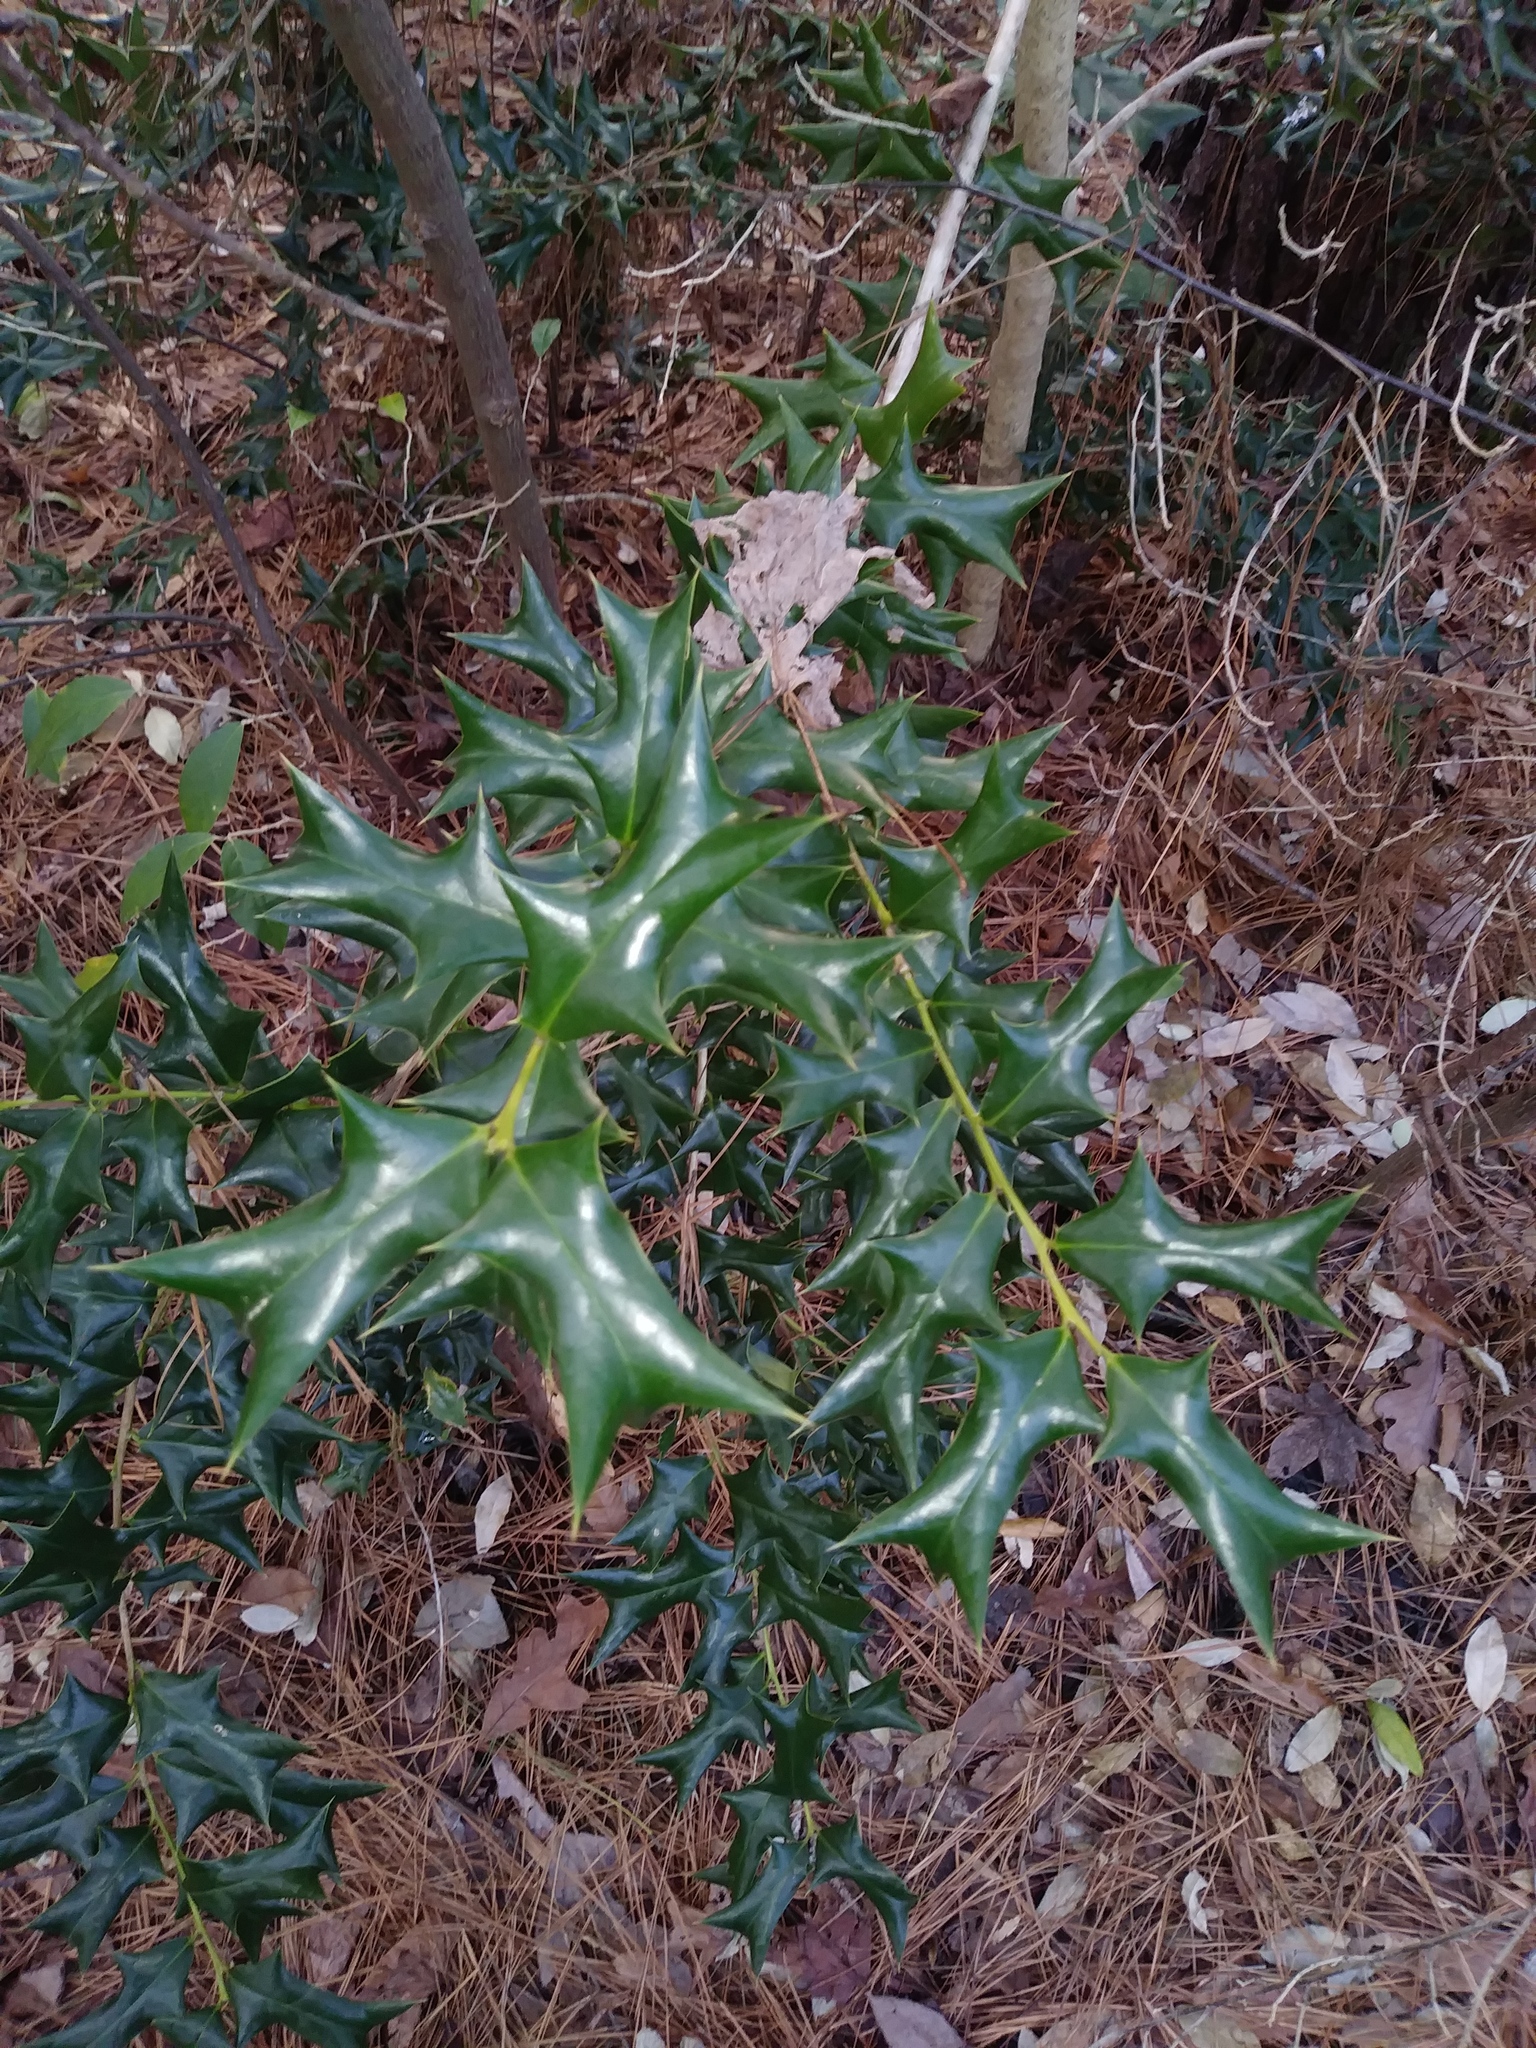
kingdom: Plantae
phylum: Tracheophyta
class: Magnoliopsida
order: Aquifoliales
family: Aquifoliaceae
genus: Ilex
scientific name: Ilex cornuta
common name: Chinese holly
